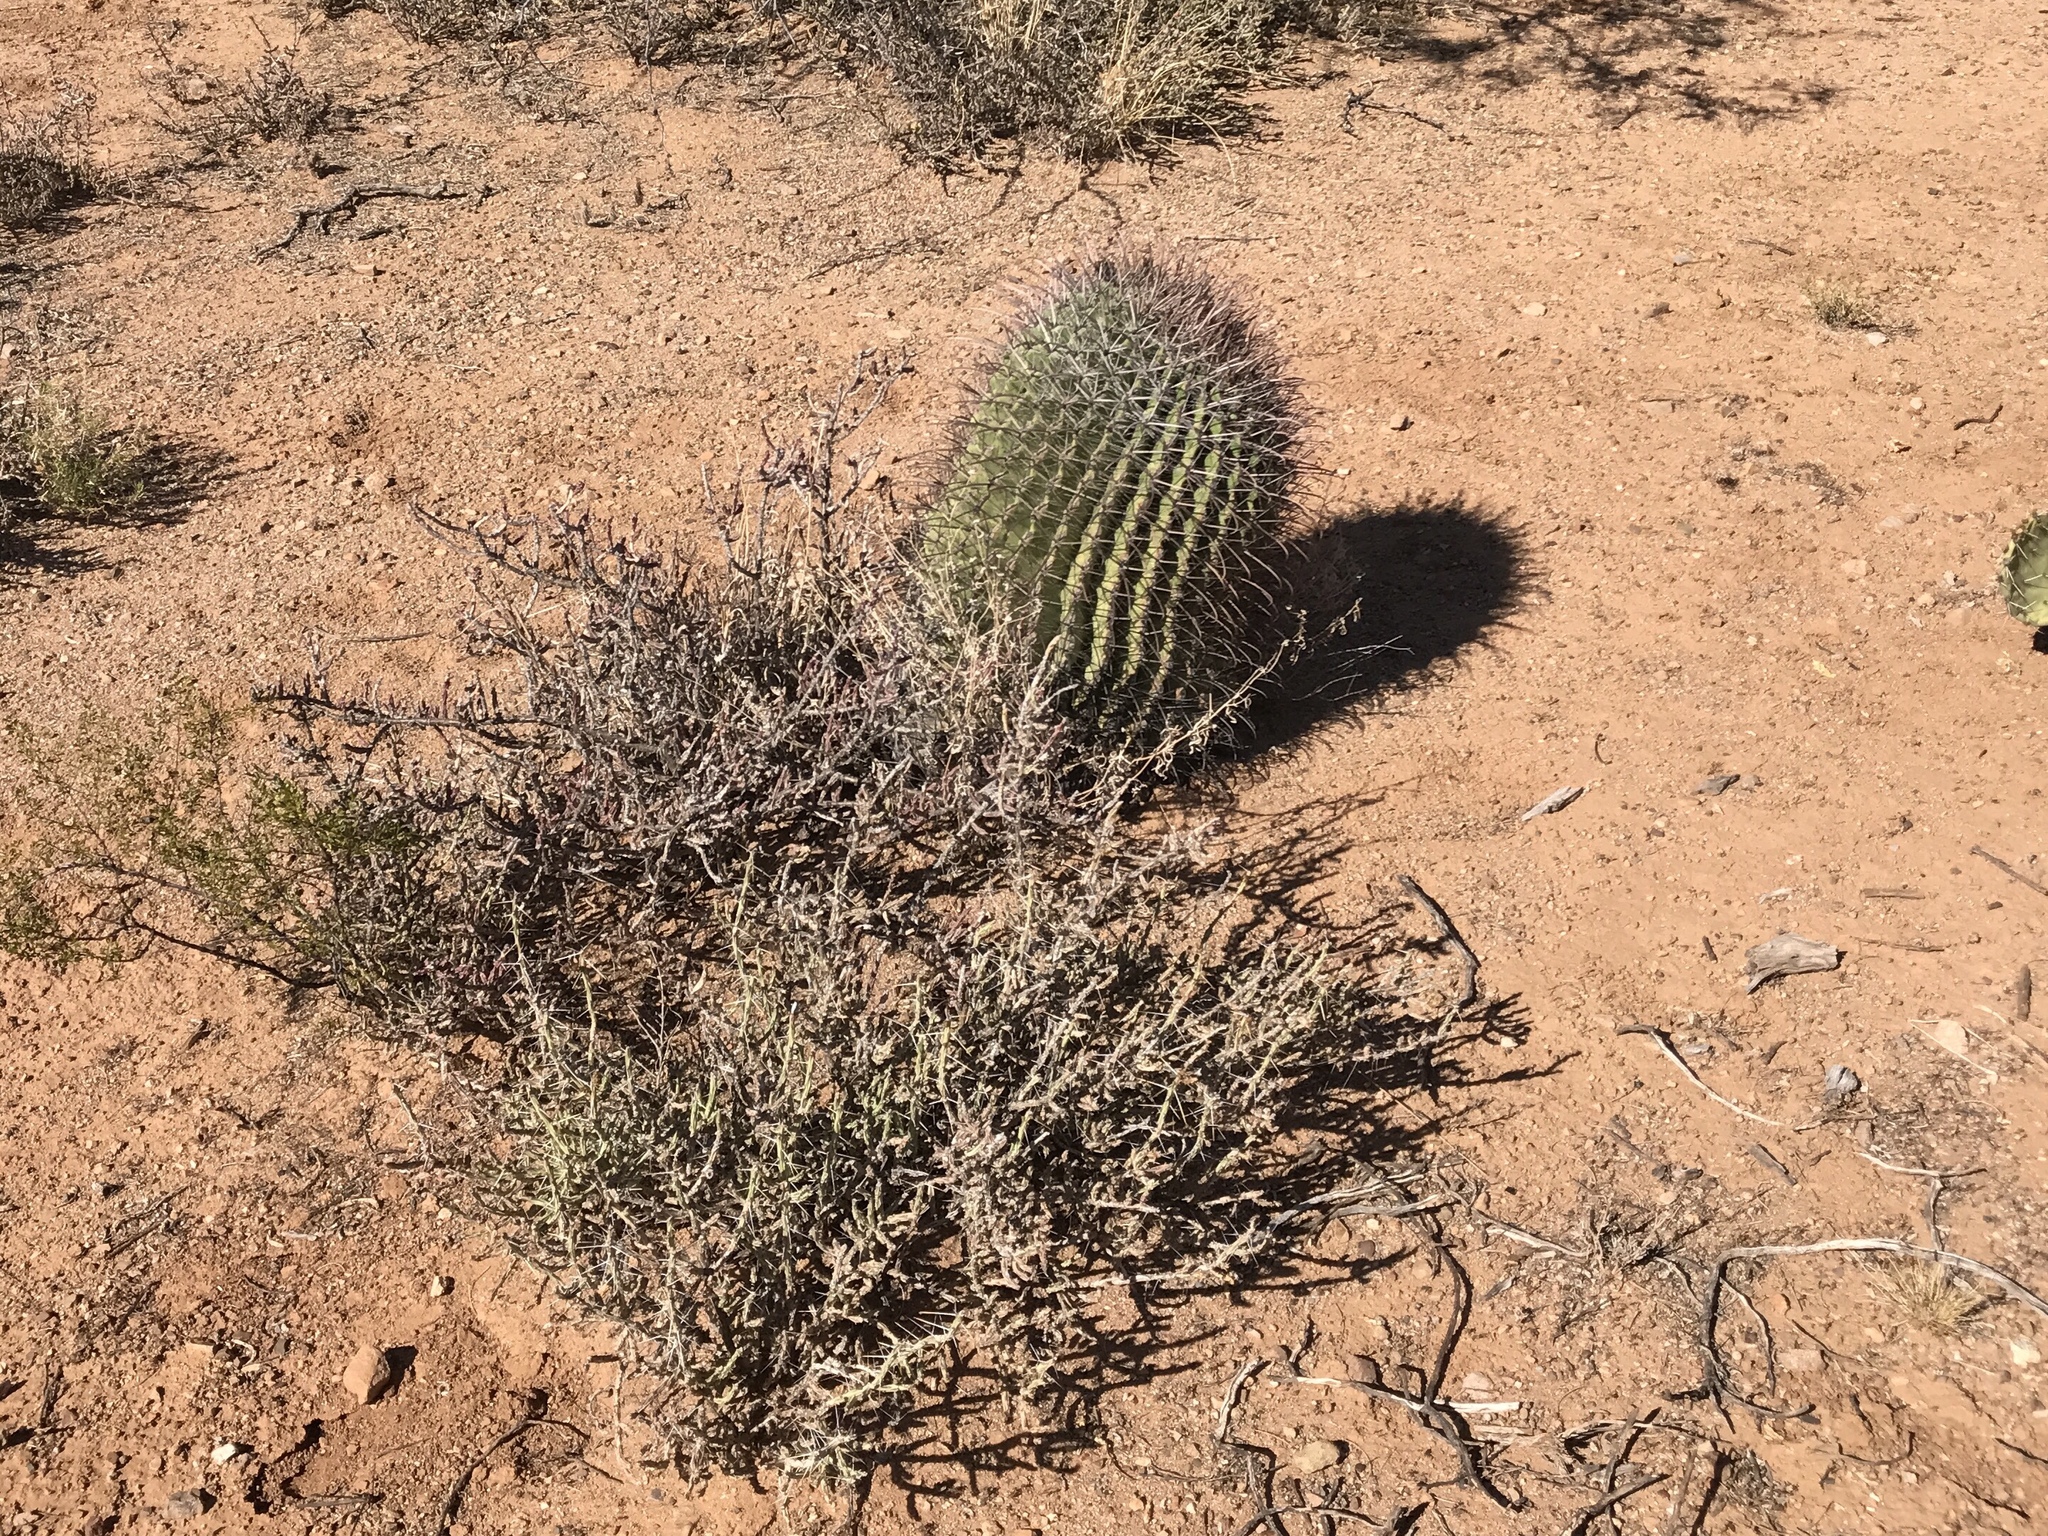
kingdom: Plantae
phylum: Tracheophyta
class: Magnoliopsida
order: Caryophyllales
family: Cactaceae
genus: Ferocactus
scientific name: Ferocactus wislizeni
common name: Candy barrel cactus
